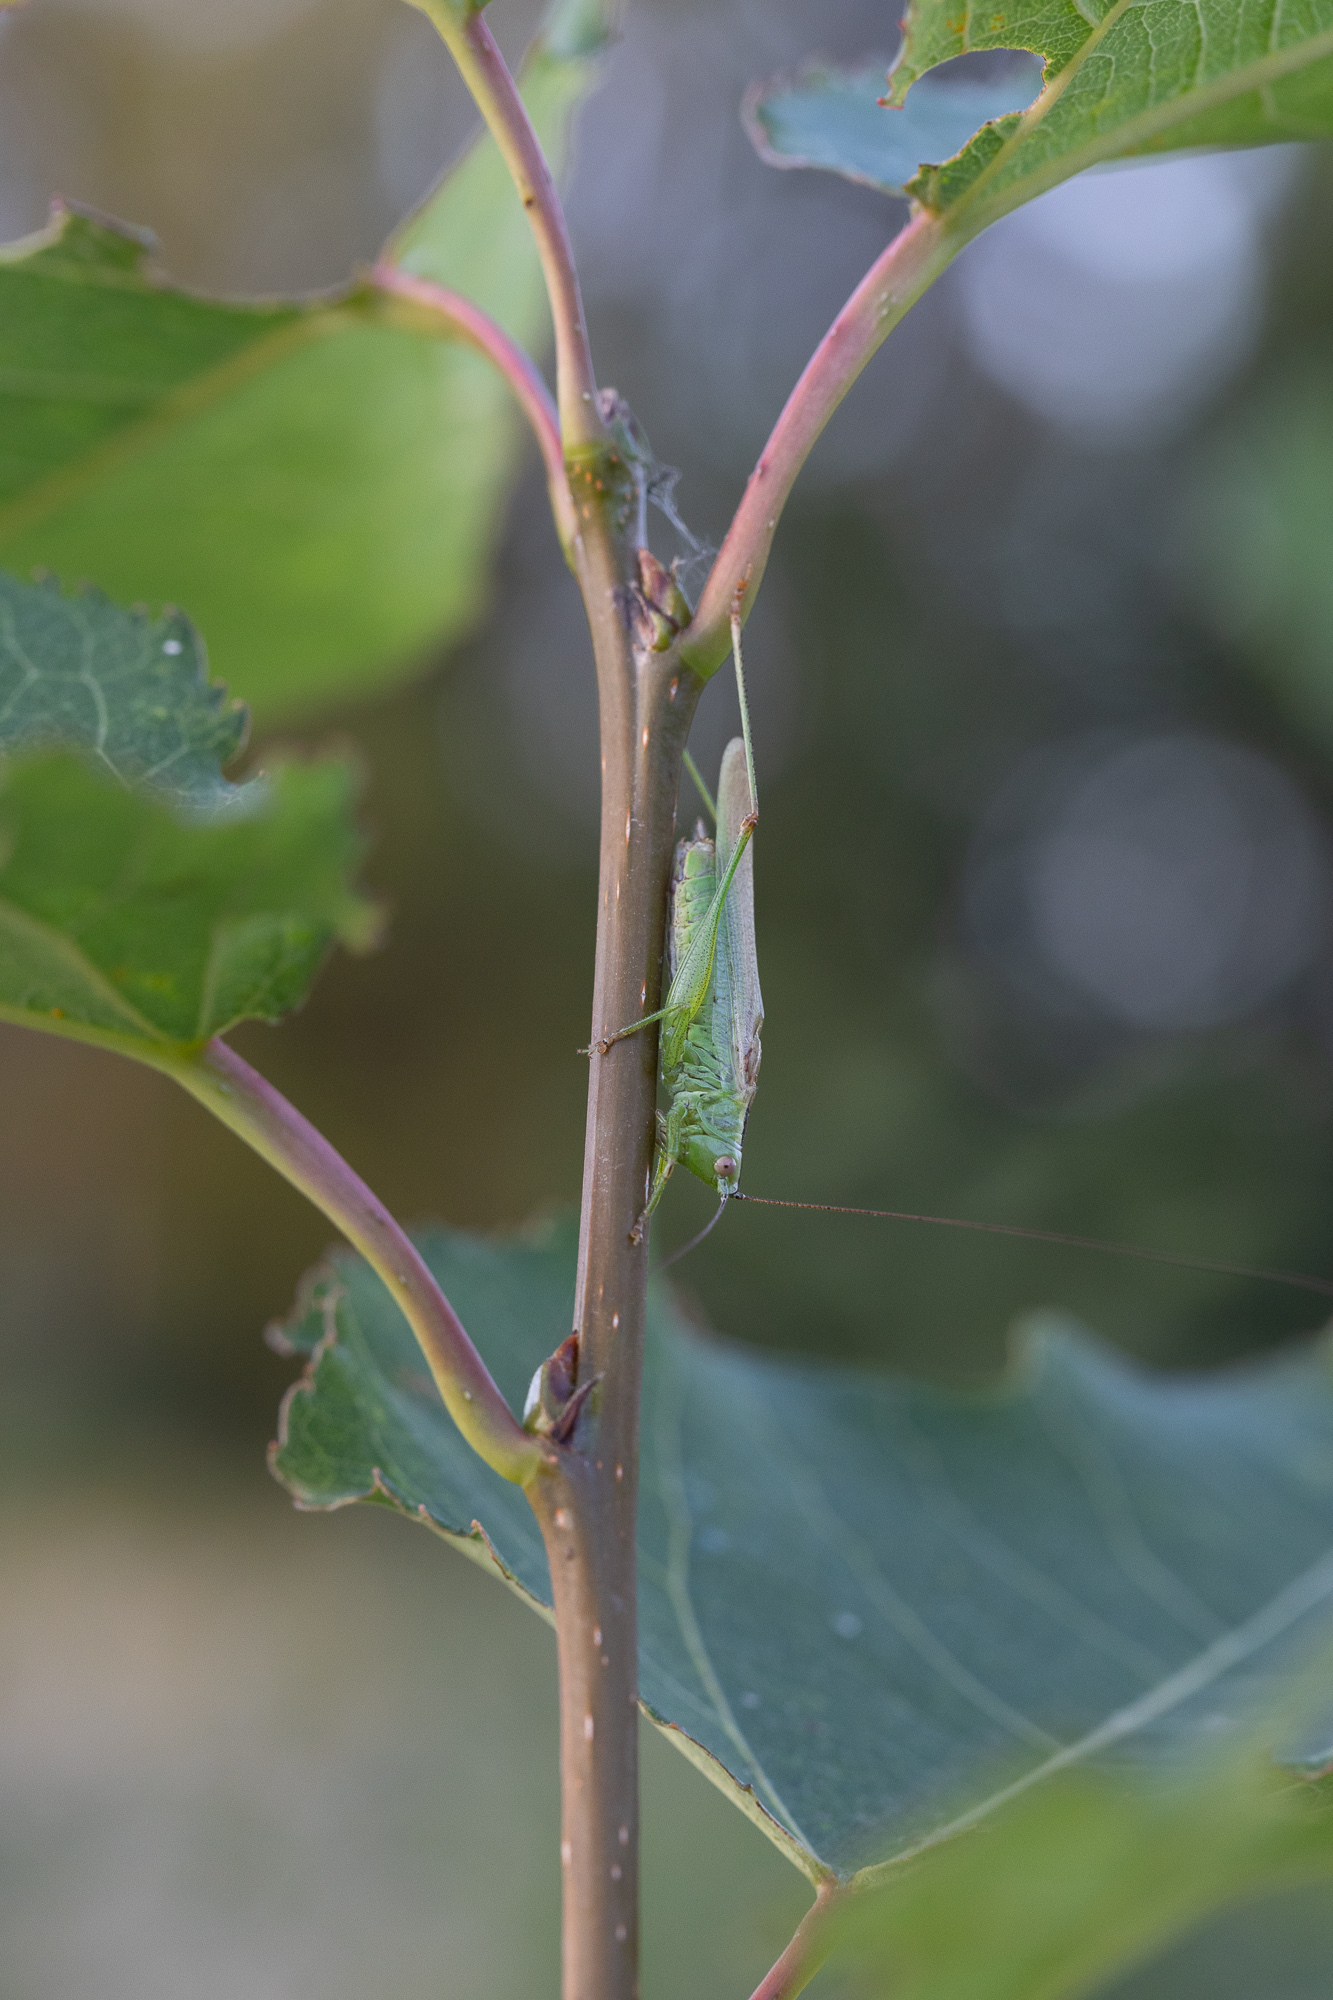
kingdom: Animalia
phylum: Arthropoda
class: Insecta
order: Orthoptera
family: Tettigoniidae
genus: Conocephalus
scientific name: Conocephalus fuscus
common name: Long-winged conehead
